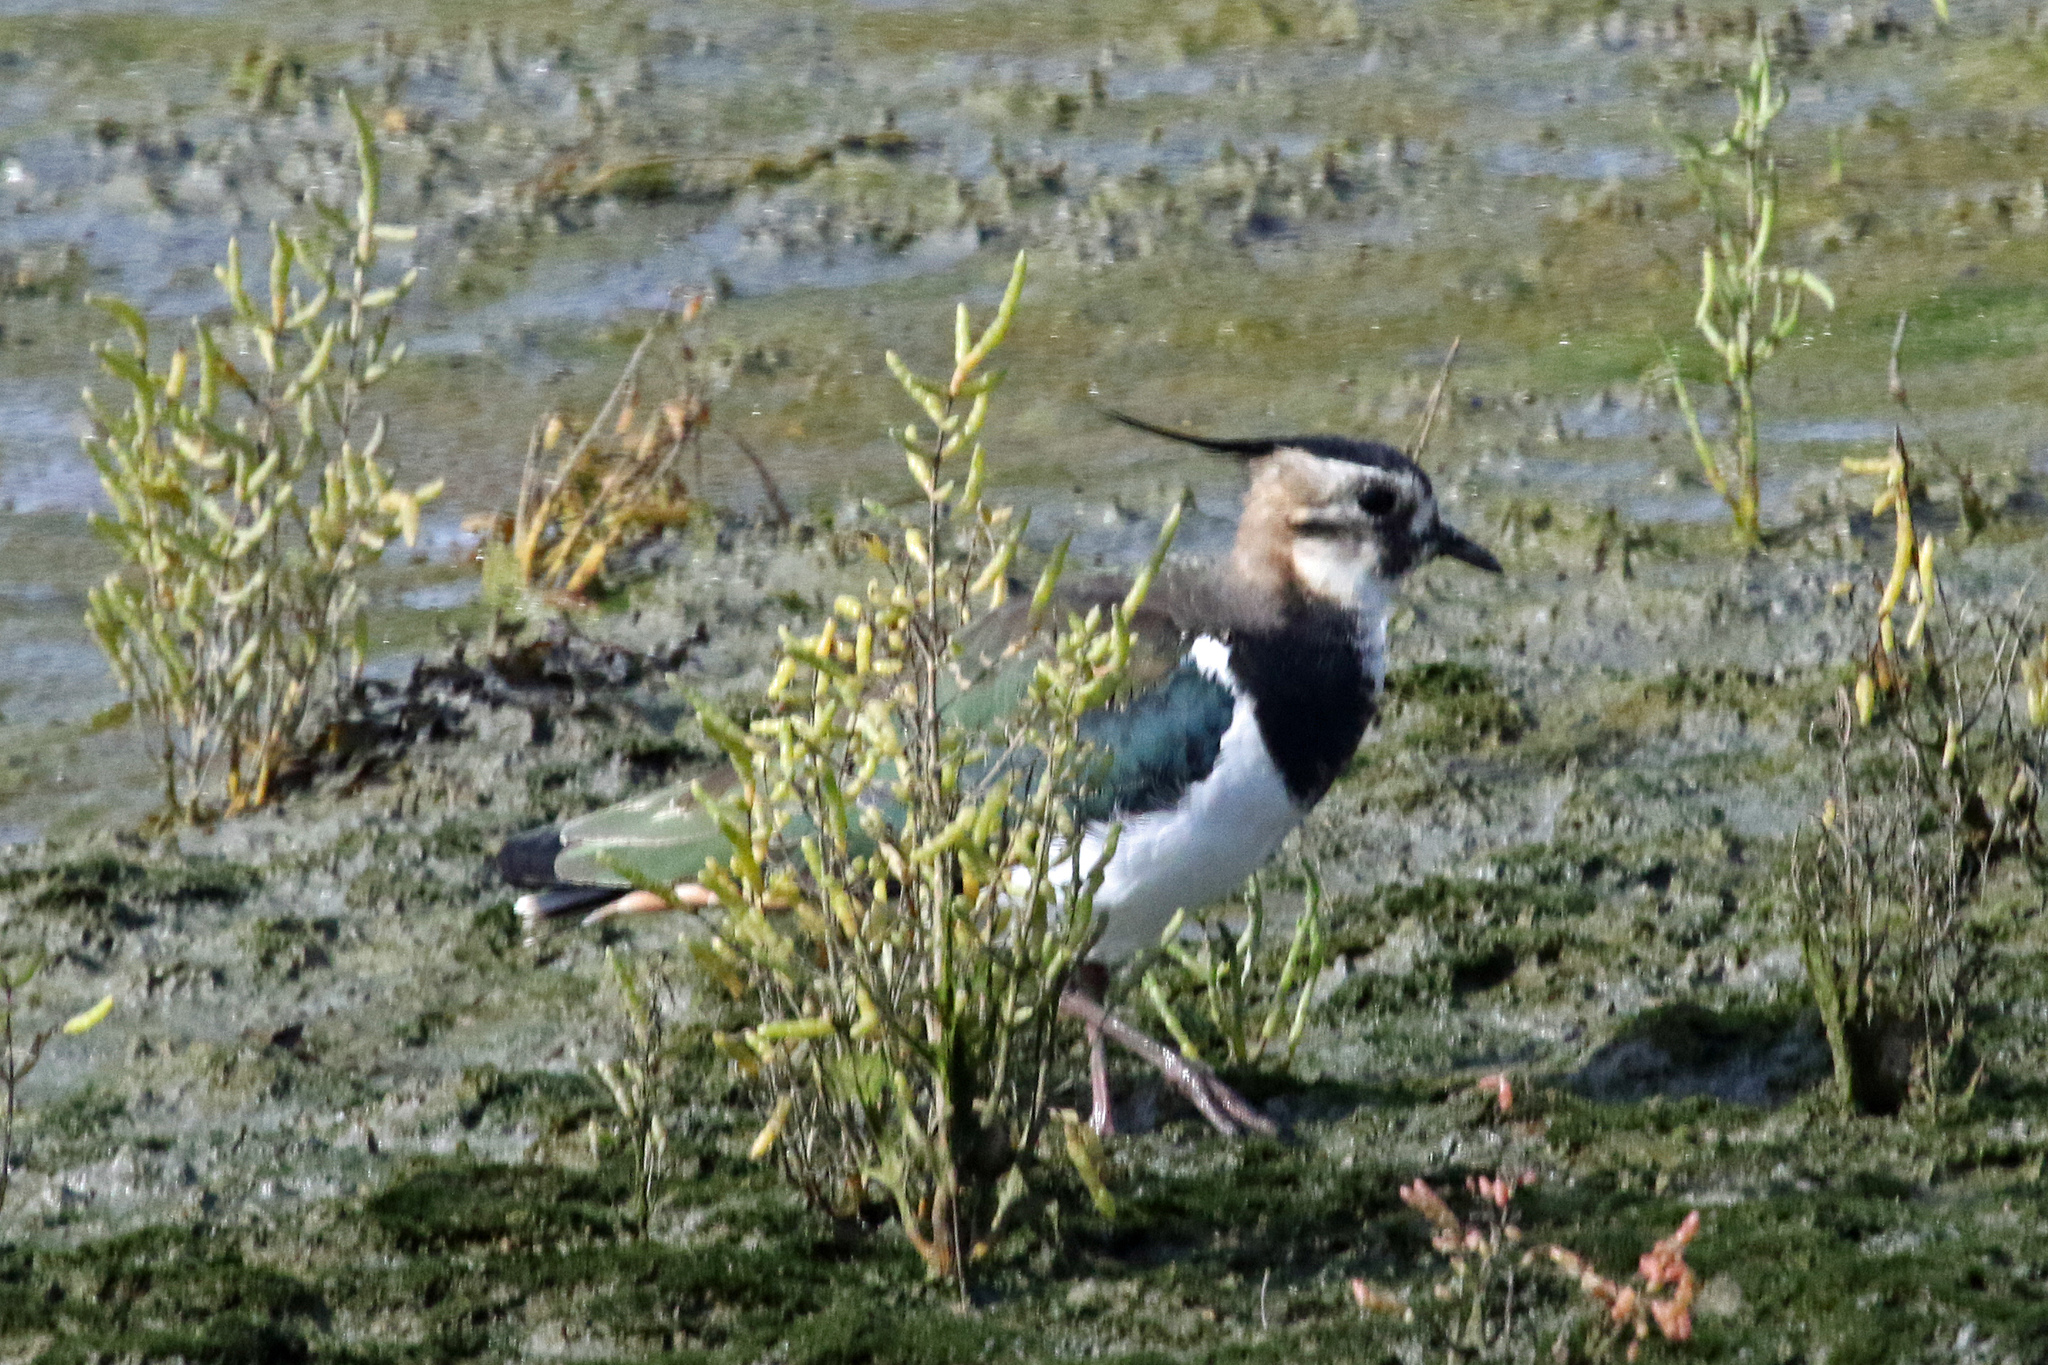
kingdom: Animalia
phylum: Chordata
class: Aves
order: Charadriiformes
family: Charadriidae
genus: Vanellus
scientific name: Vanellus vanellus
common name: Northern lapwing
